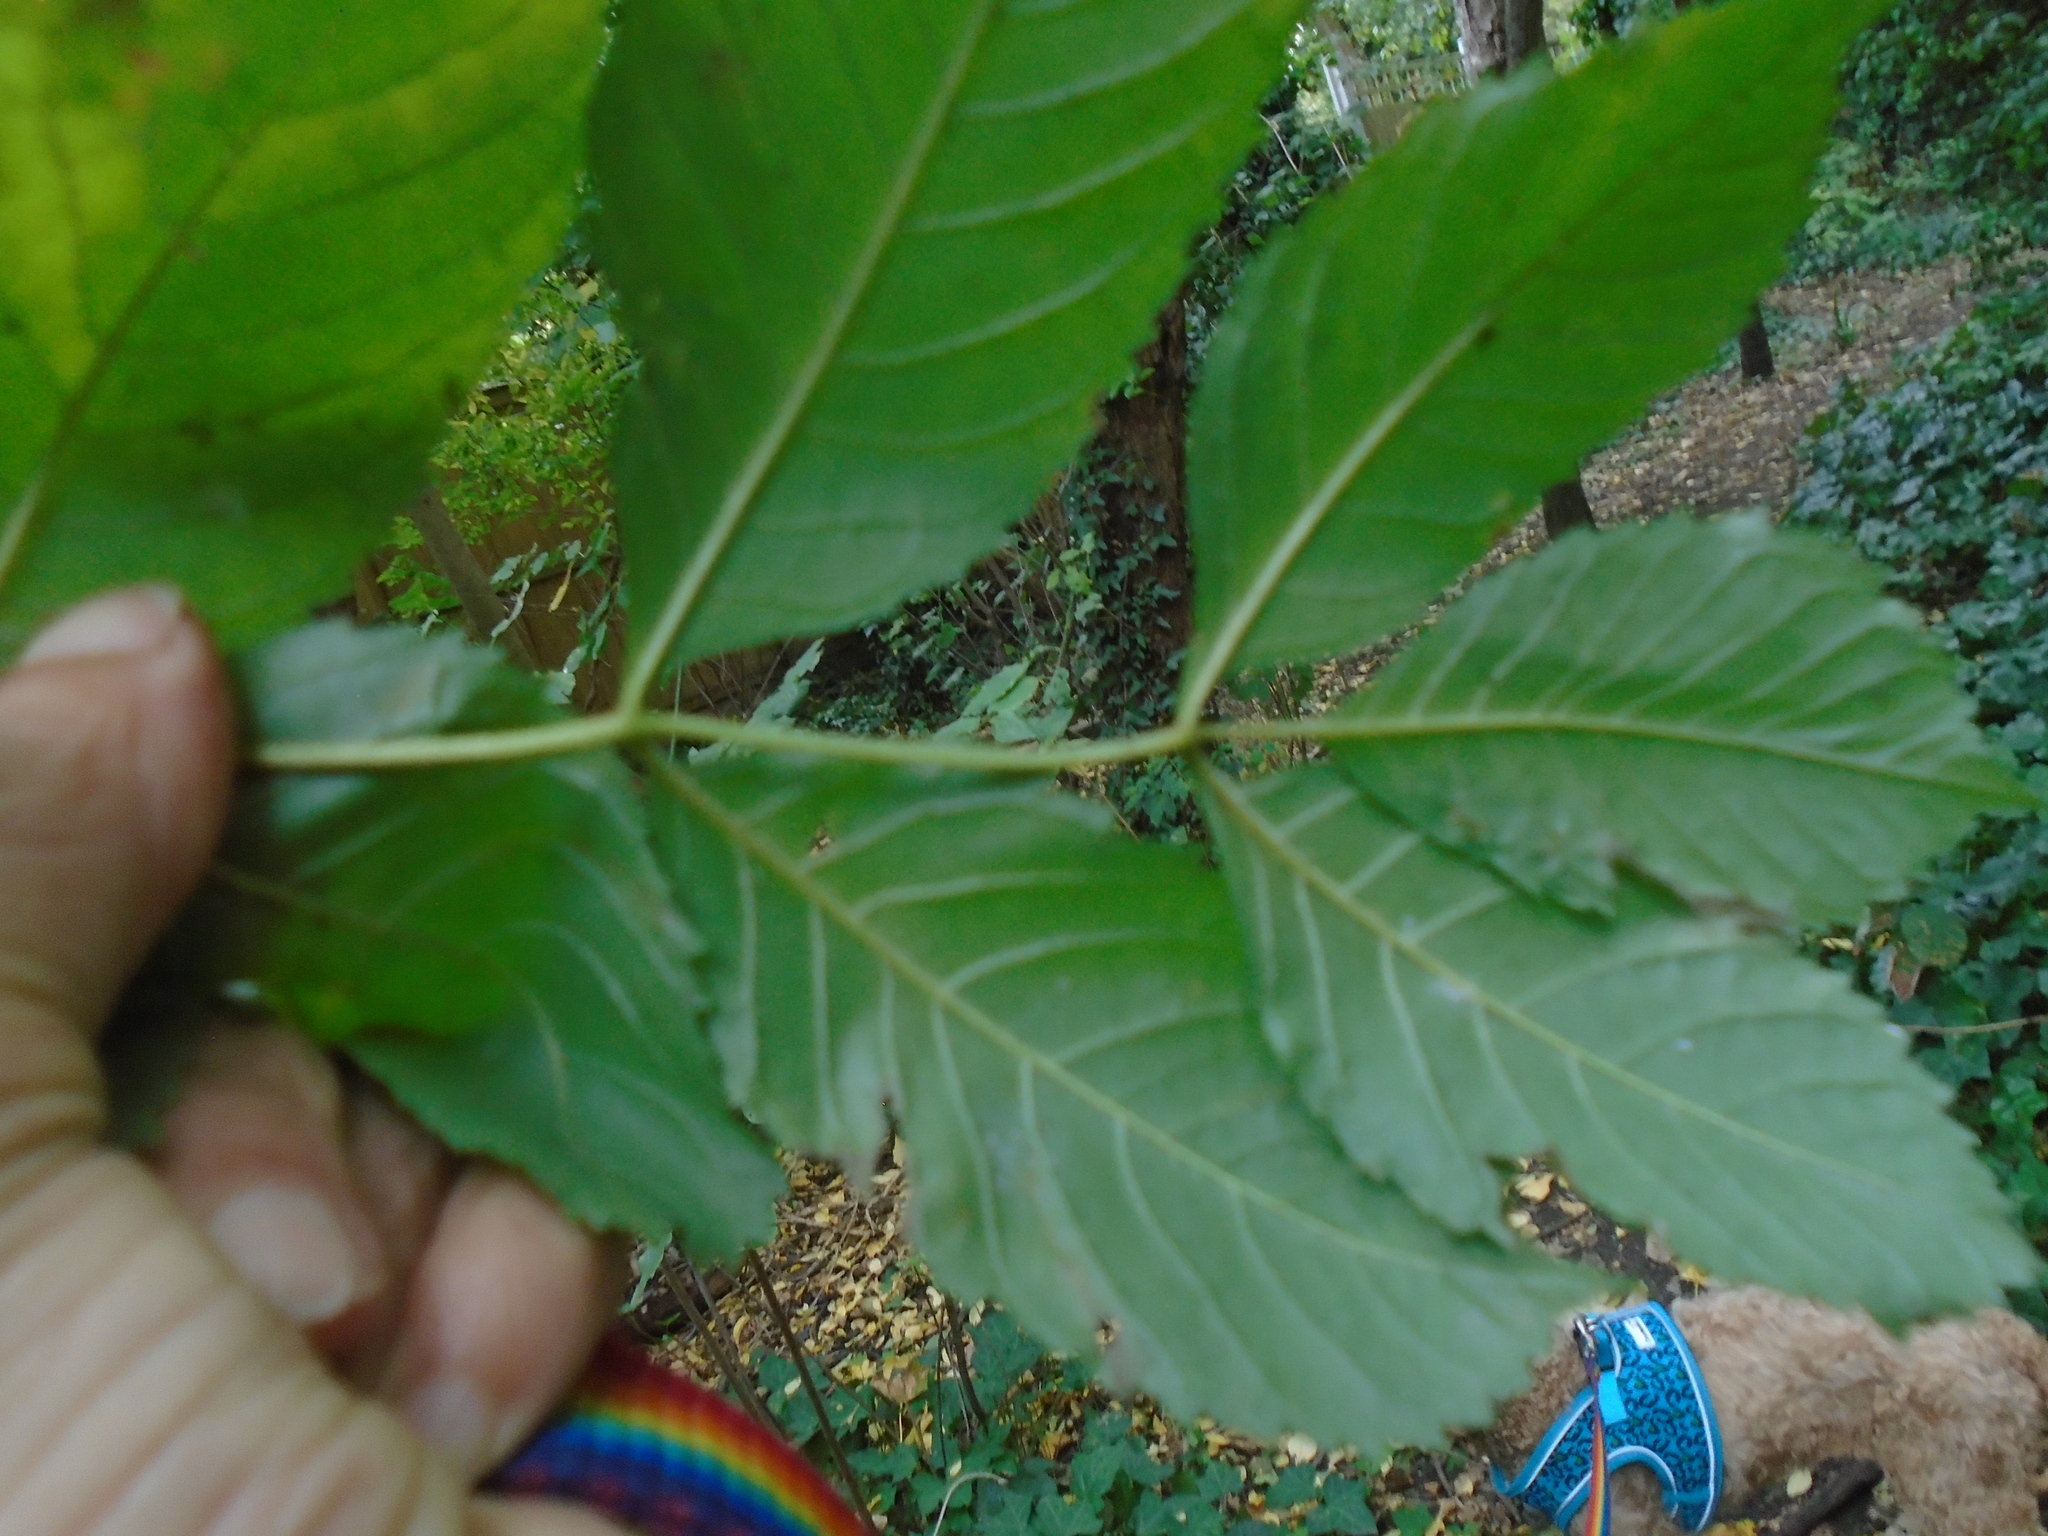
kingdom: Plantae
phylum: Tracheophyta
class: Magnoliopsida
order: Lamiales
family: Oleaceae
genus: Fraxinus
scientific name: Fraxinus excelsior
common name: European ash
